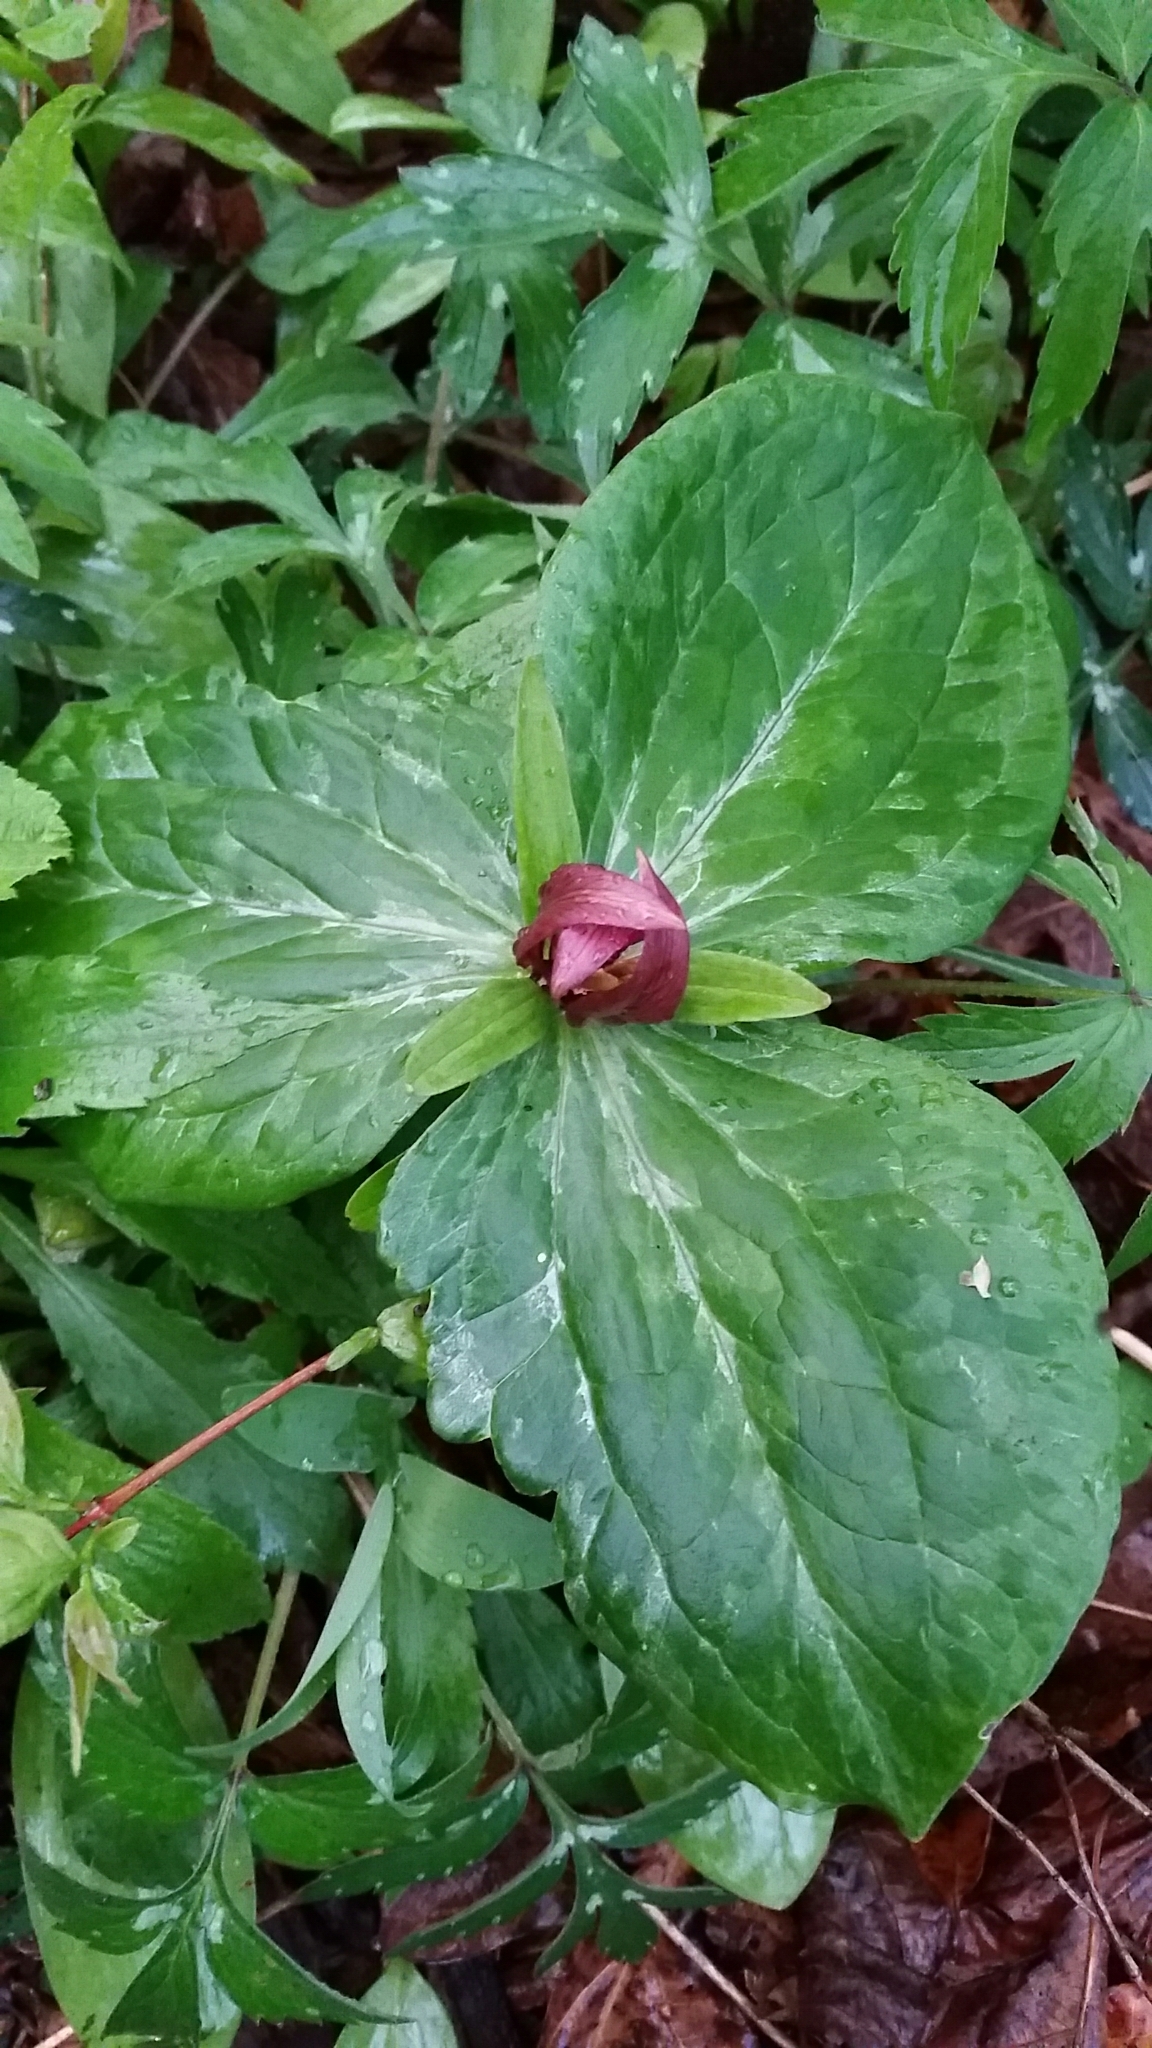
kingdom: Plantae
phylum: Tracheophyta
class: Liliopsida
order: Liliales
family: Melanthiaceae
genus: Trillium
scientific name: Trillium sessile
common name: Sessile trillium
